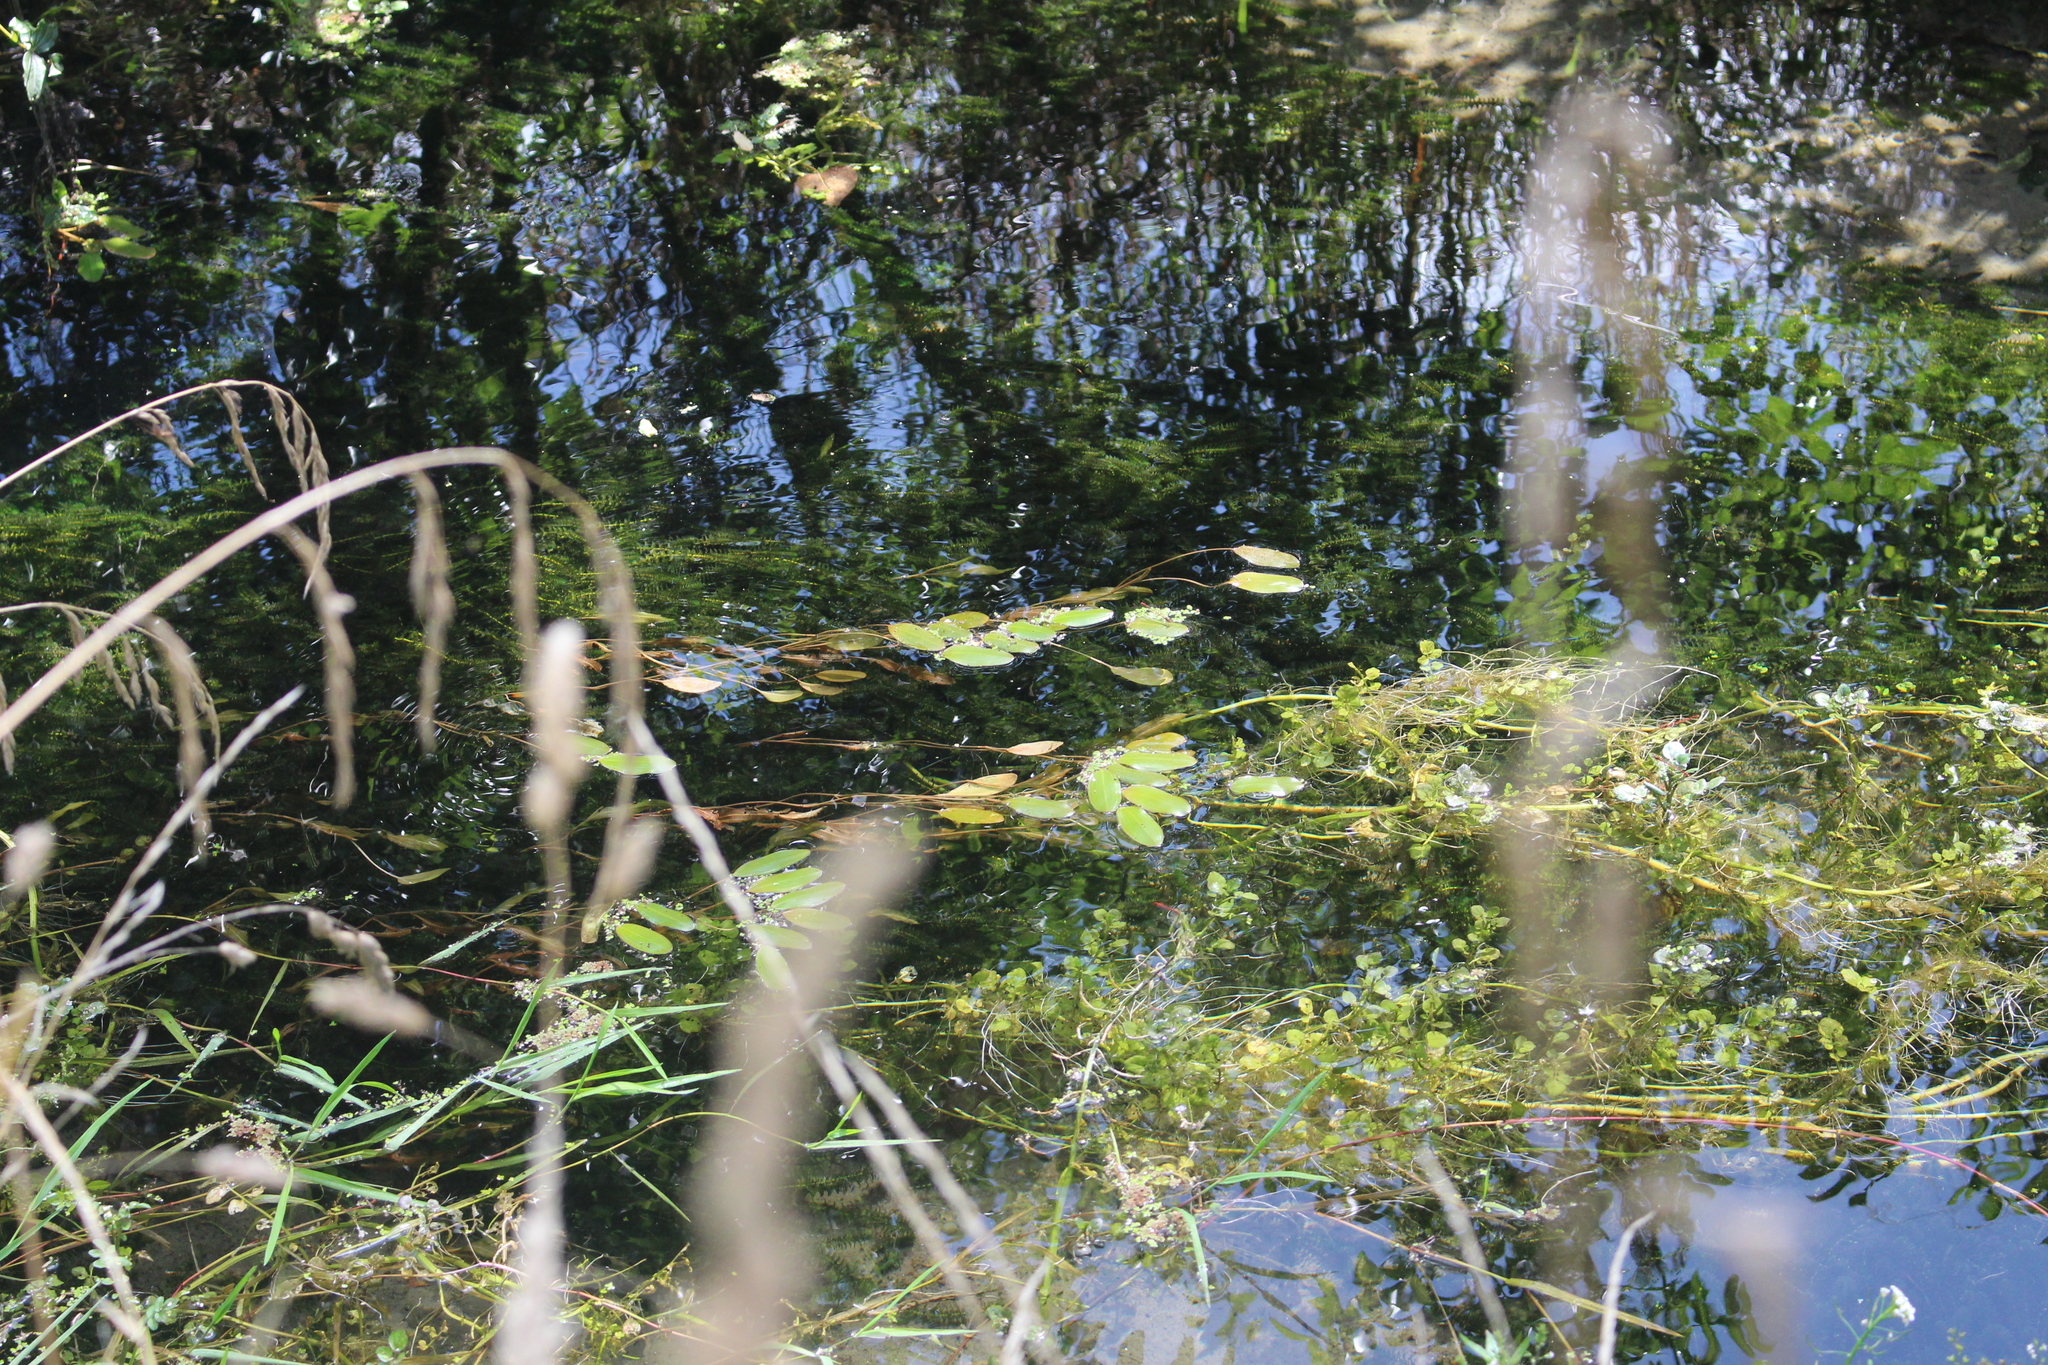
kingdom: Plantae
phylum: Tracheophyta
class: Liliopsida
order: Alismatales
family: Potamogetonaceae
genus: Potamogeton
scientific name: Potamogeton cheesemanii
